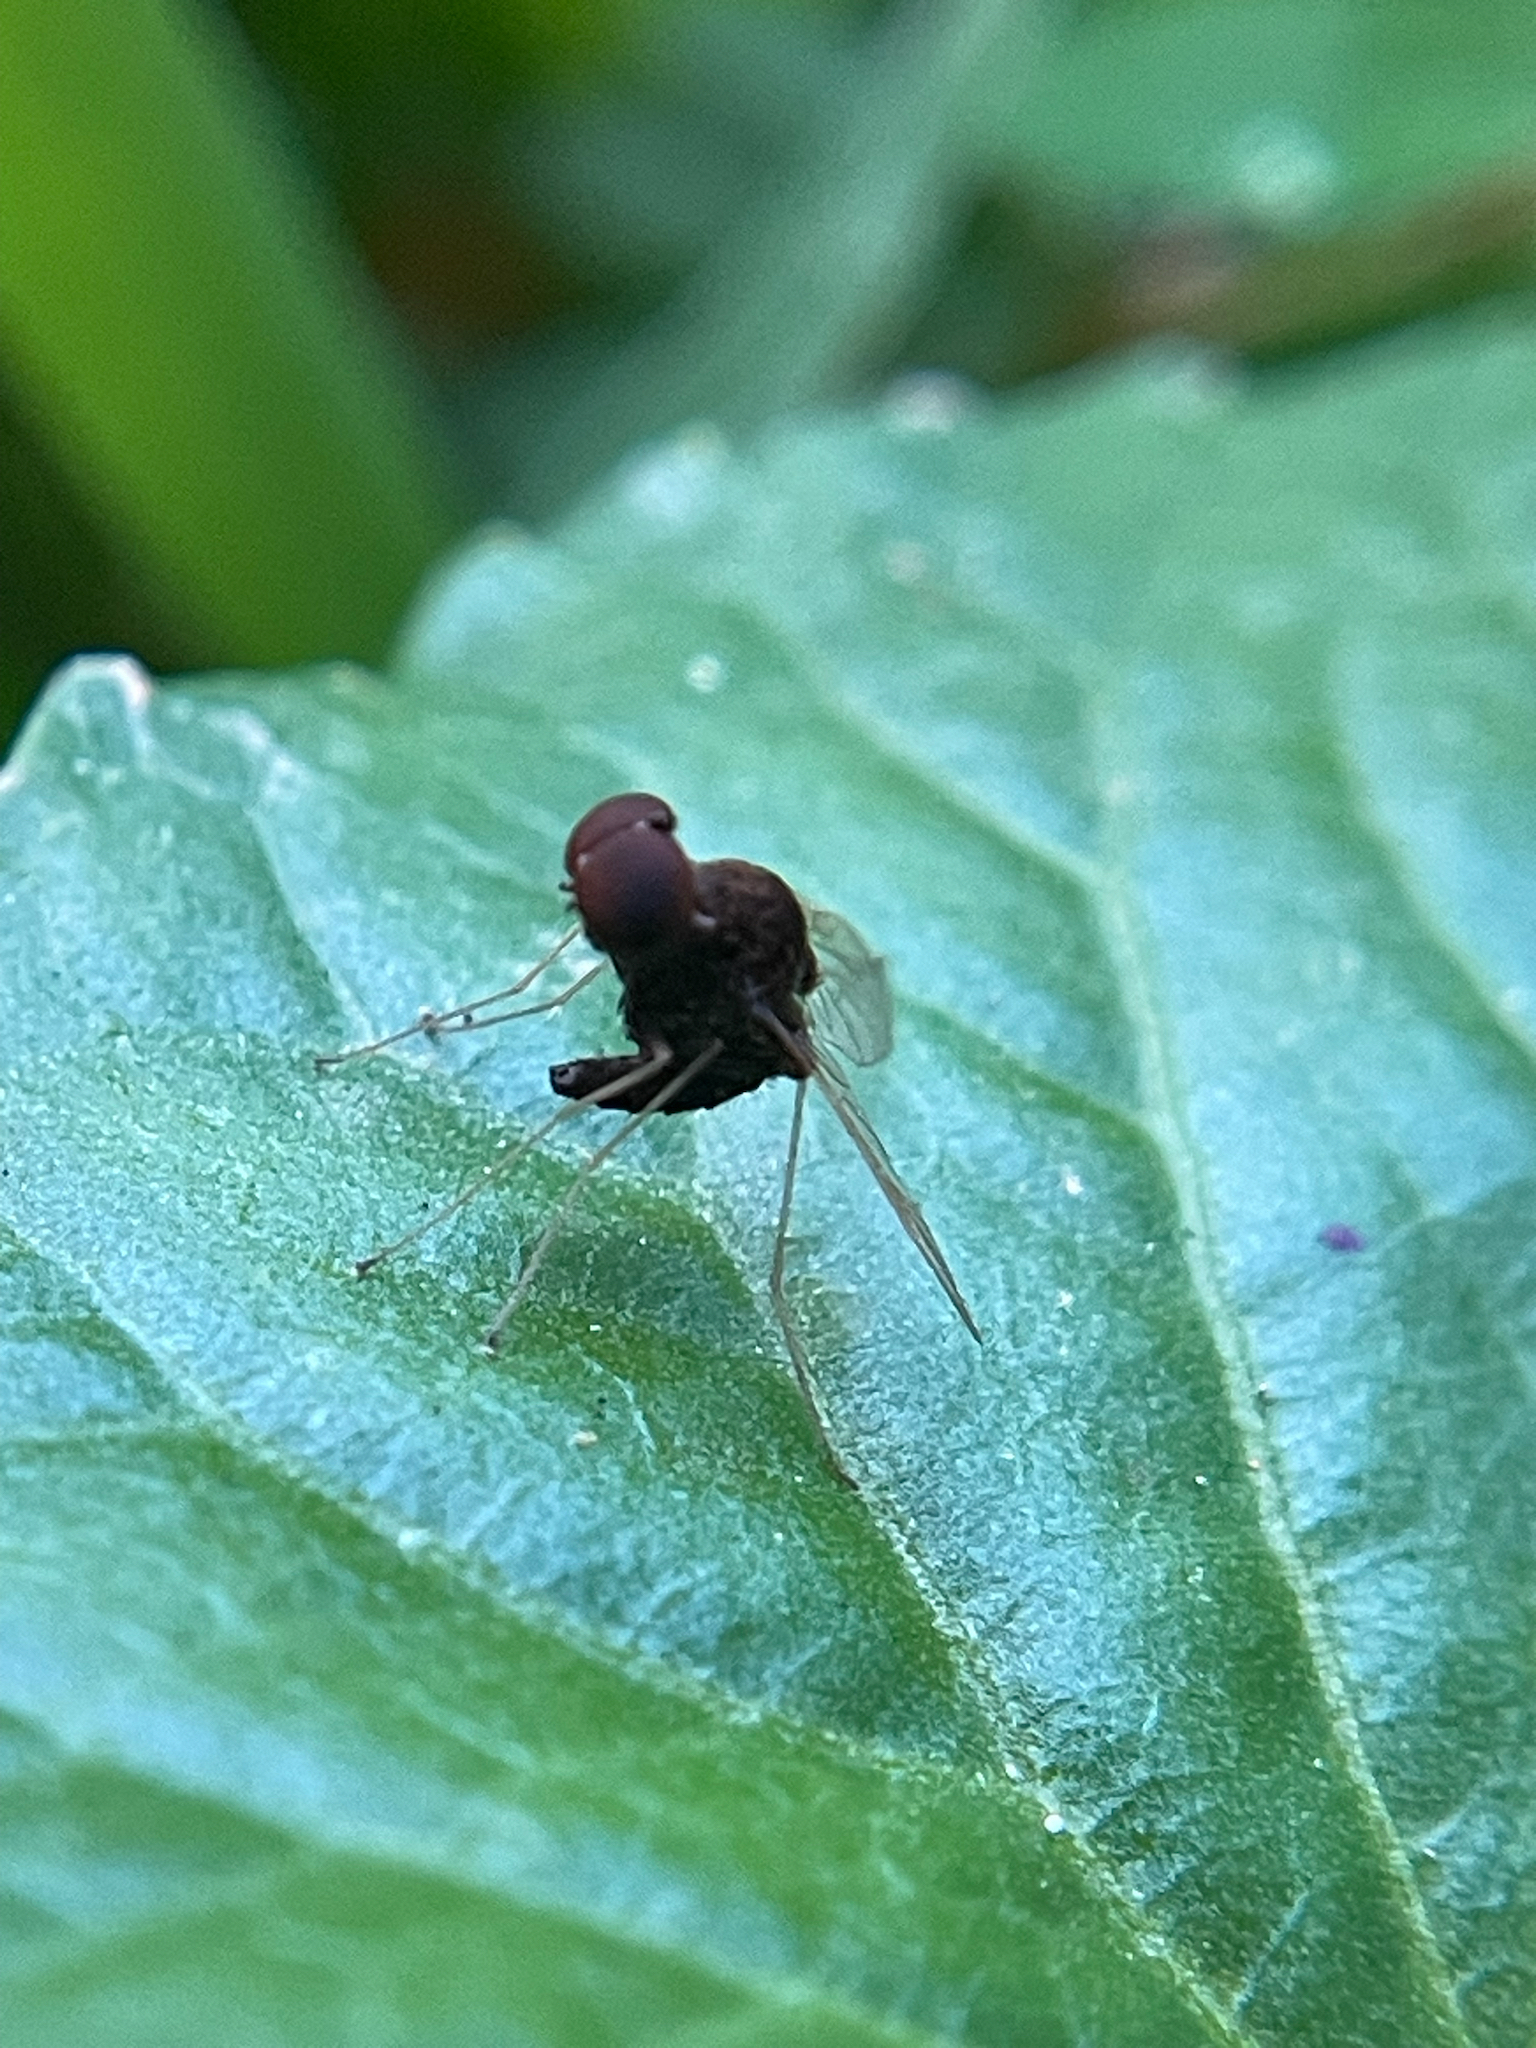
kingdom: Animalia
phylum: Arthropoda
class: Insecta
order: Diptera
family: Rhagionidae
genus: Chrysopilus
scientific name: Chrysopilus basilaris
